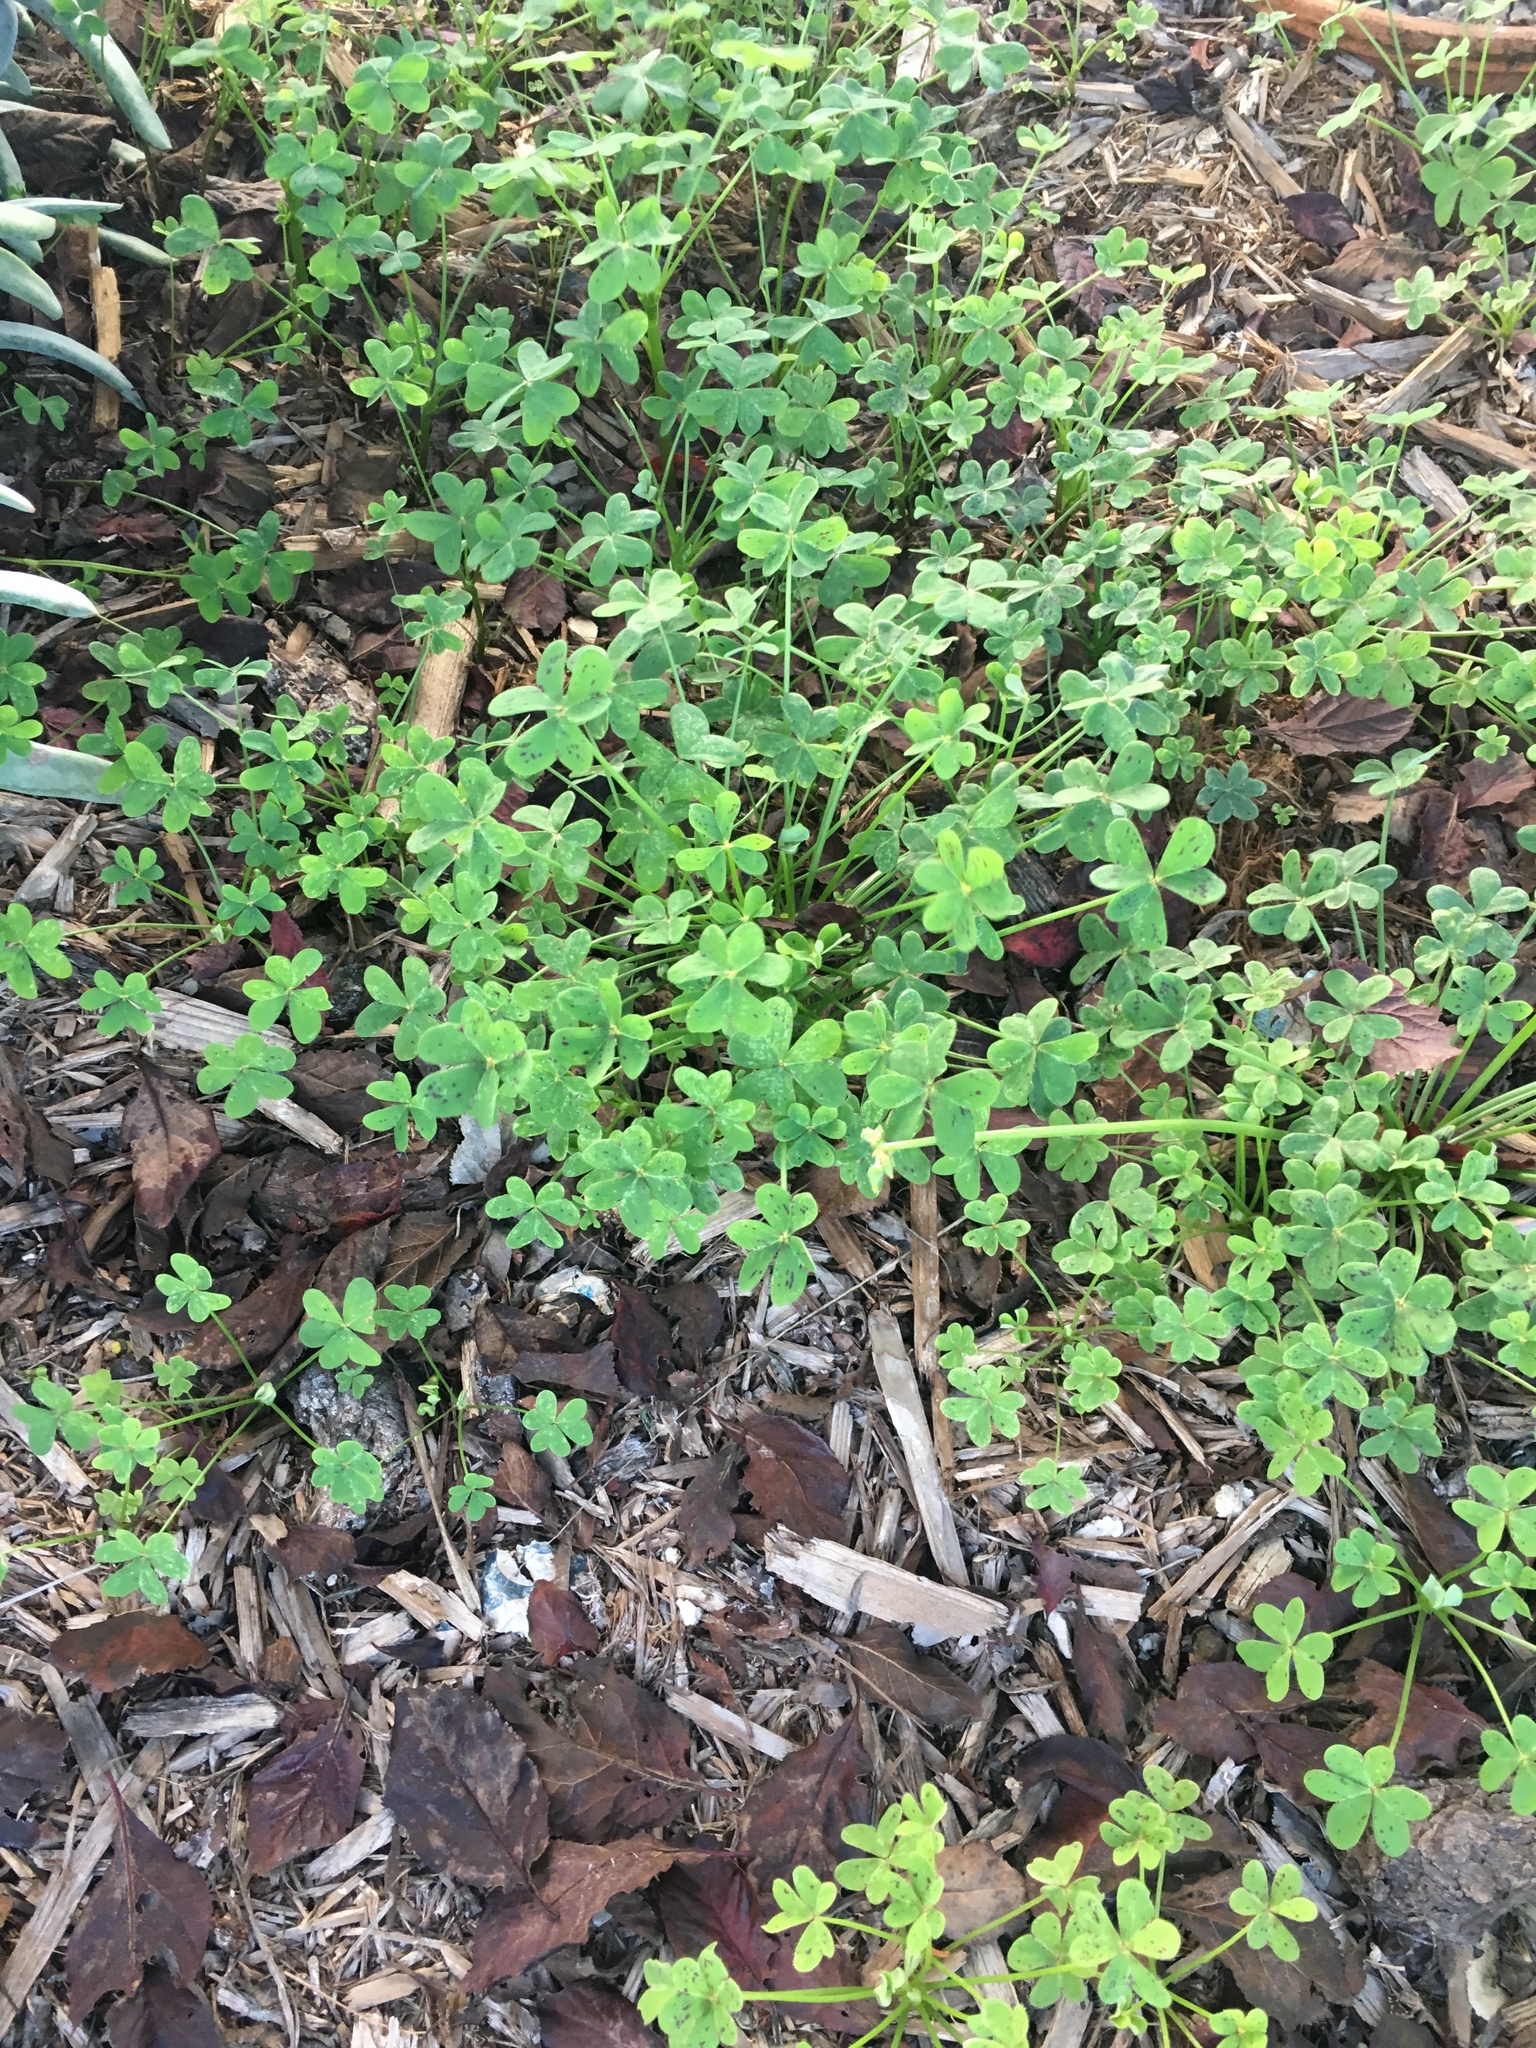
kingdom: Plantae
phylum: Tracheophyta
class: Magnoliopsida
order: Oxalidales
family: Oxalidaceae
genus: Oxalis
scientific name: Oxalis pes-caprae
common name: Bermuda-buttercup
